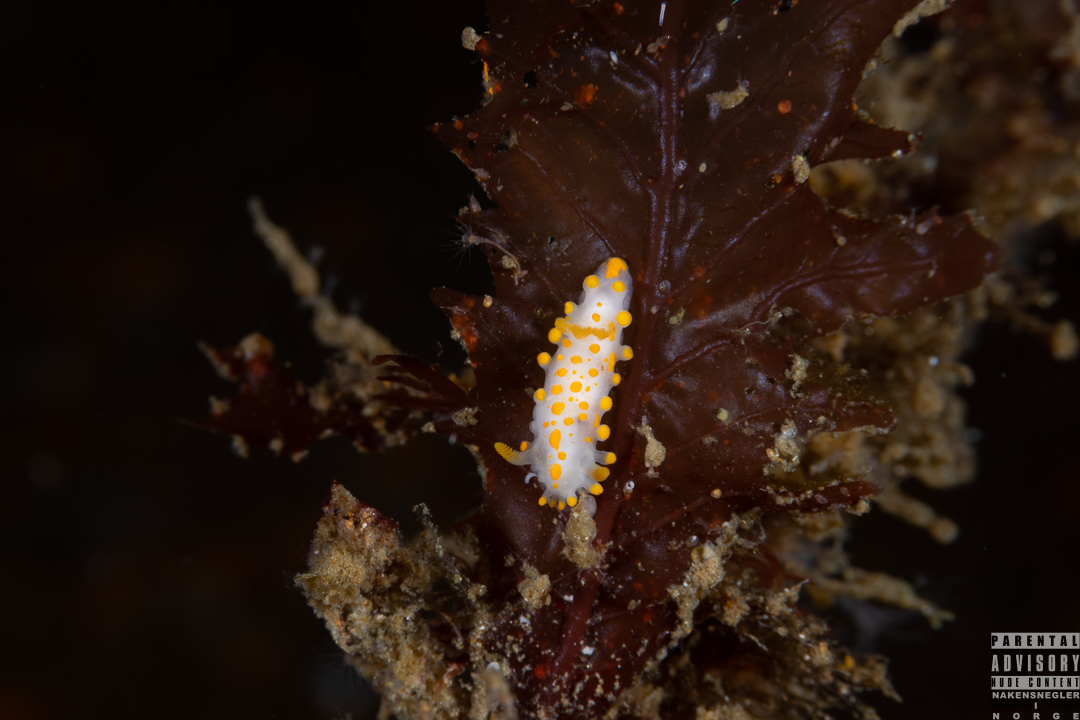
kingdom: Animalia
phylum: Mollusca
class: Gastropoda
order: Nudibranchia
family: Polyceridae
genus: Limacia
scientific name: Limacia clavigera
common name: Orange-clubbed sea slug
